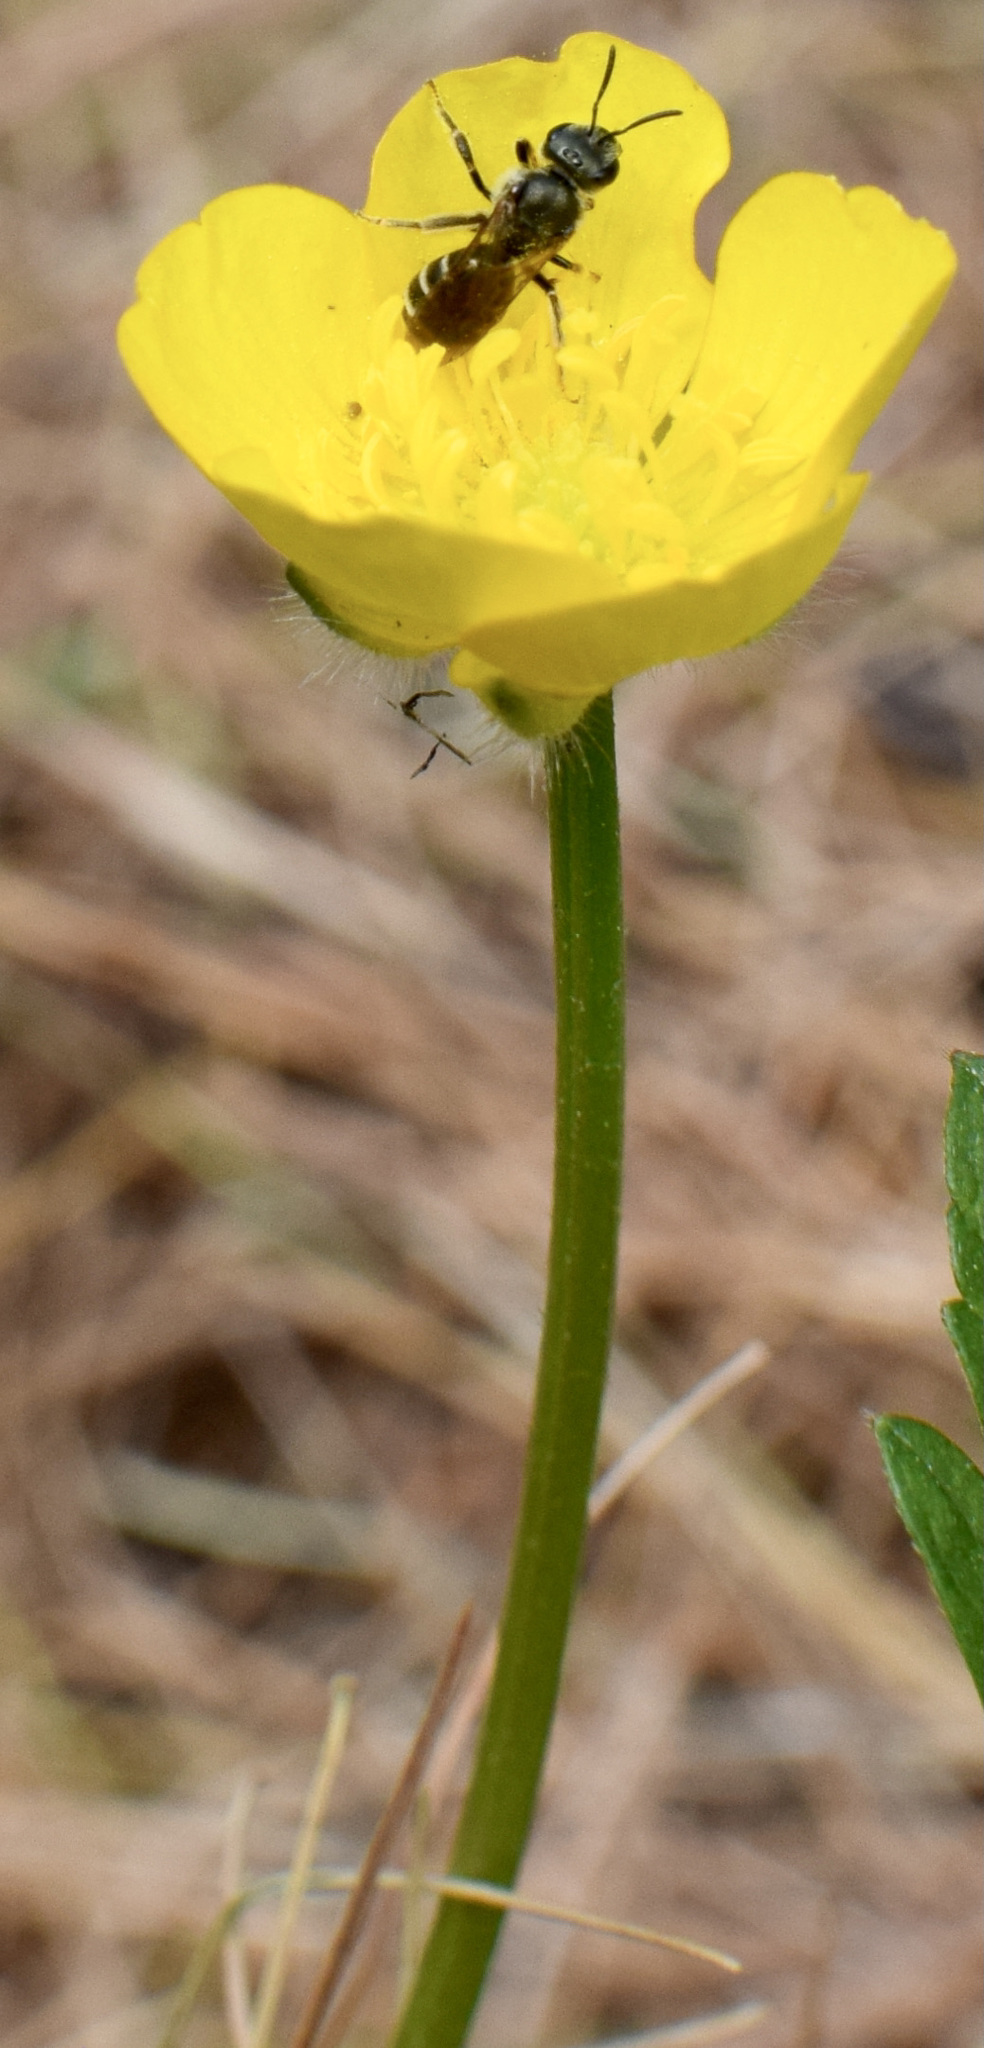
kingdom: Animalia
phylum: Arthropoda
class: Insecta
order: Hymenoptera
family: Halictidae
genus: Halictus
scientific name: Halictus confusus
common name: Southern bronze furrow bee
